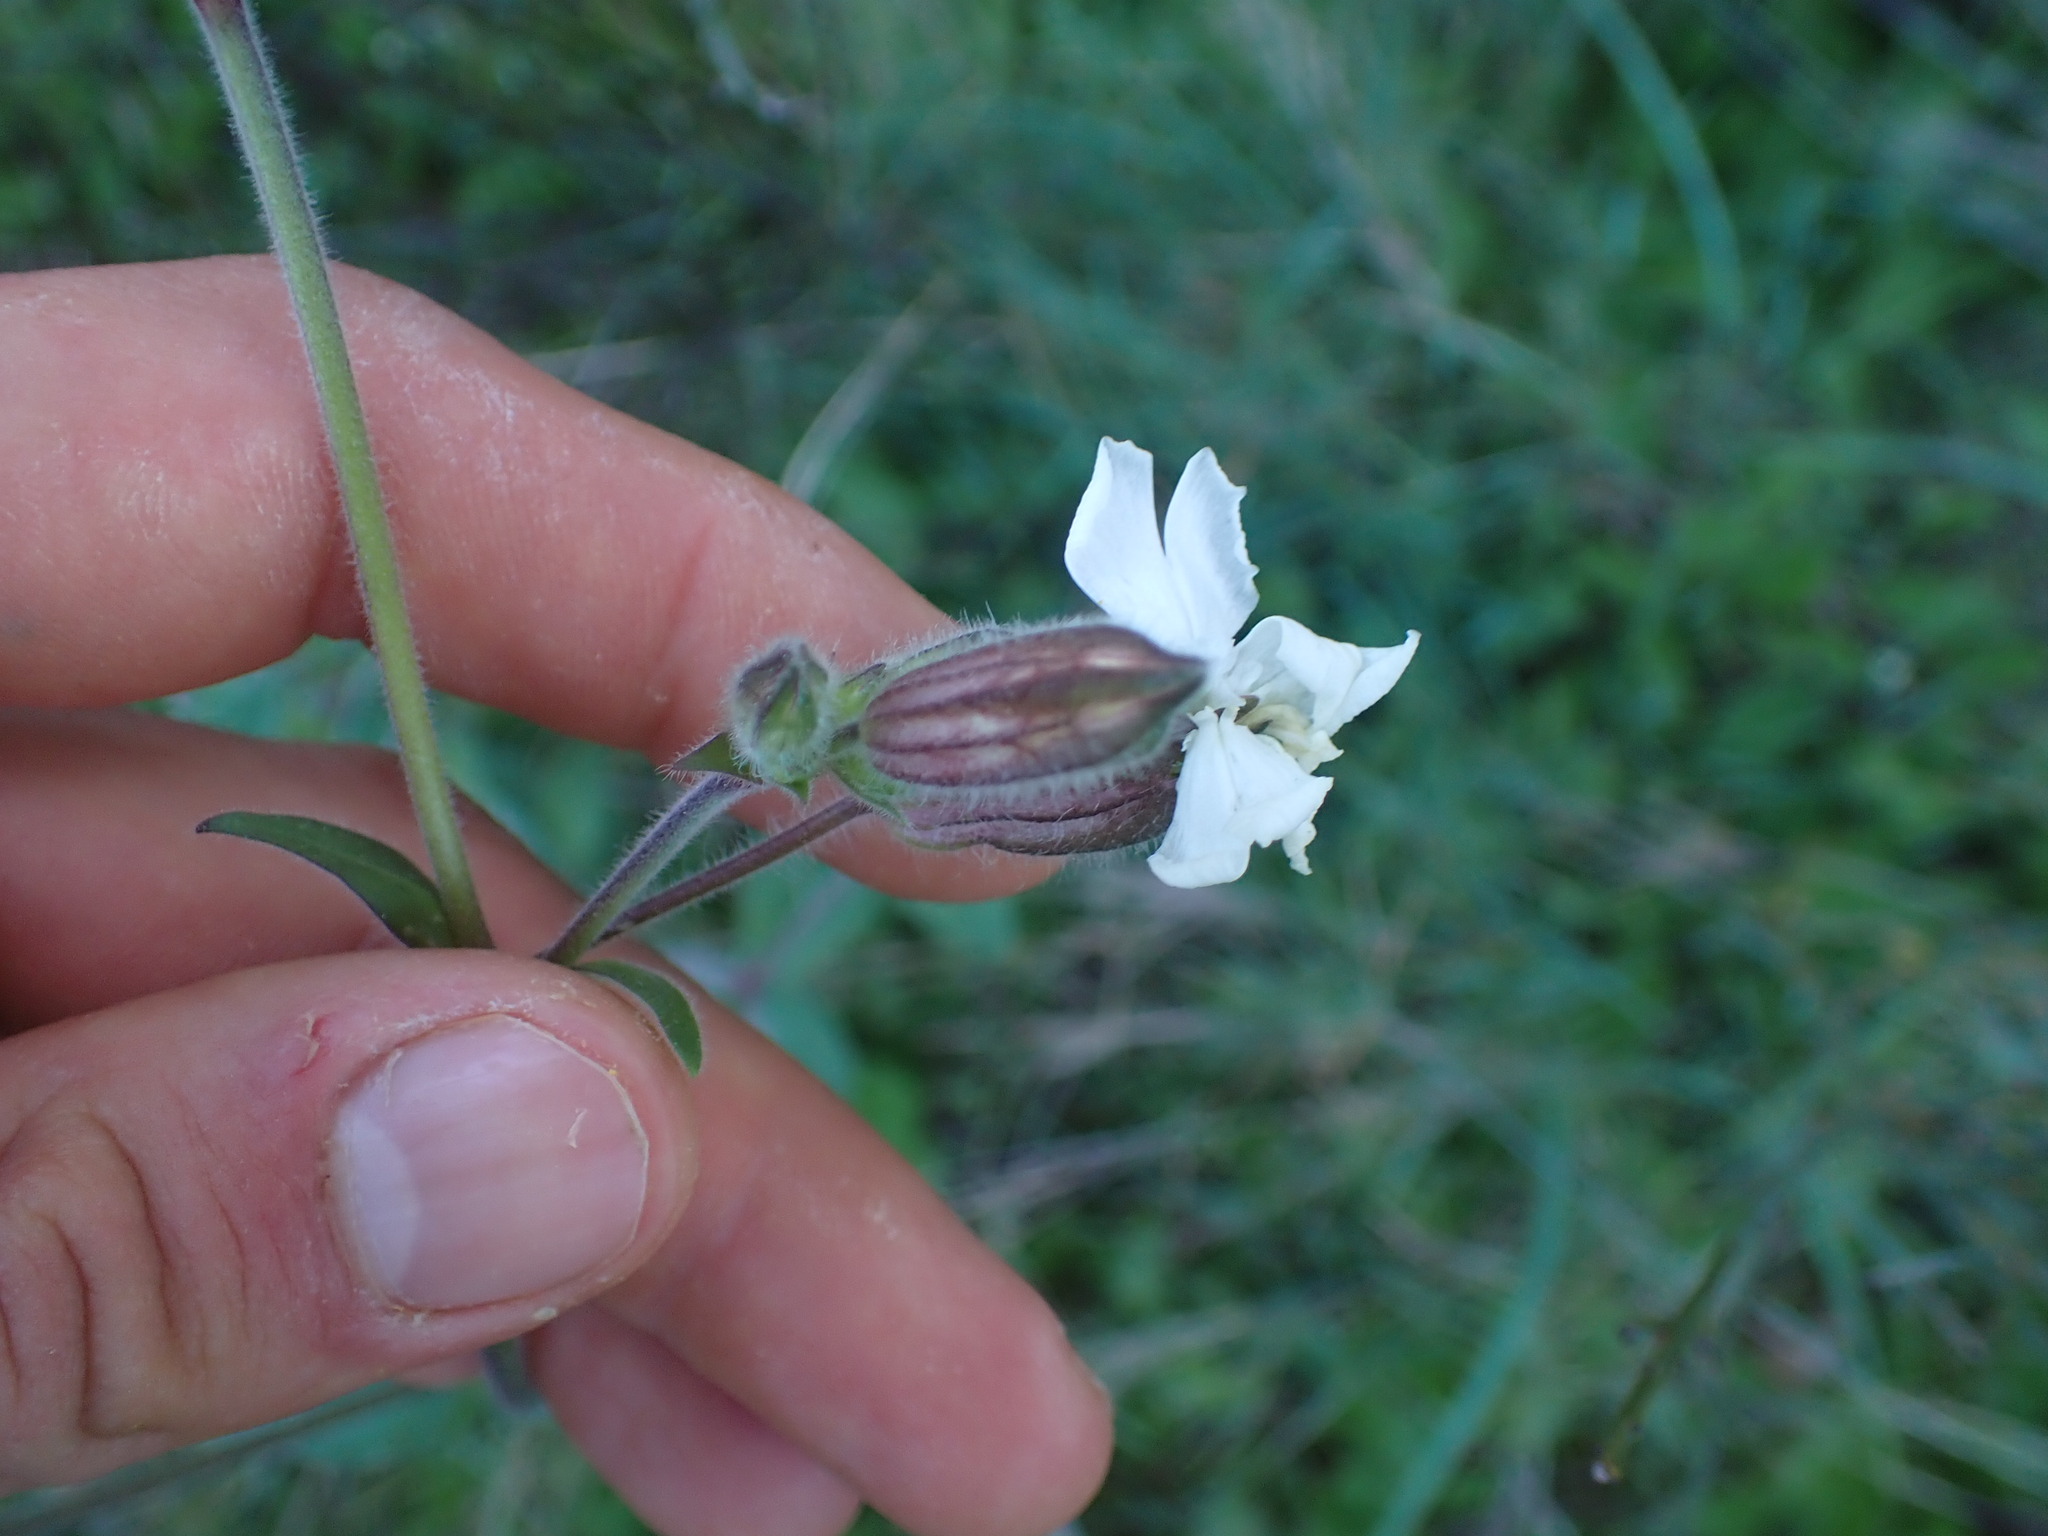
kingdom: Plantae
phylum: Tracheophyta
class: Magnoliopsida
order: Caryophyllales
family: Caryophyllaceae
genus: Silene
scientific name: Silene latifolia
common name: White campion
